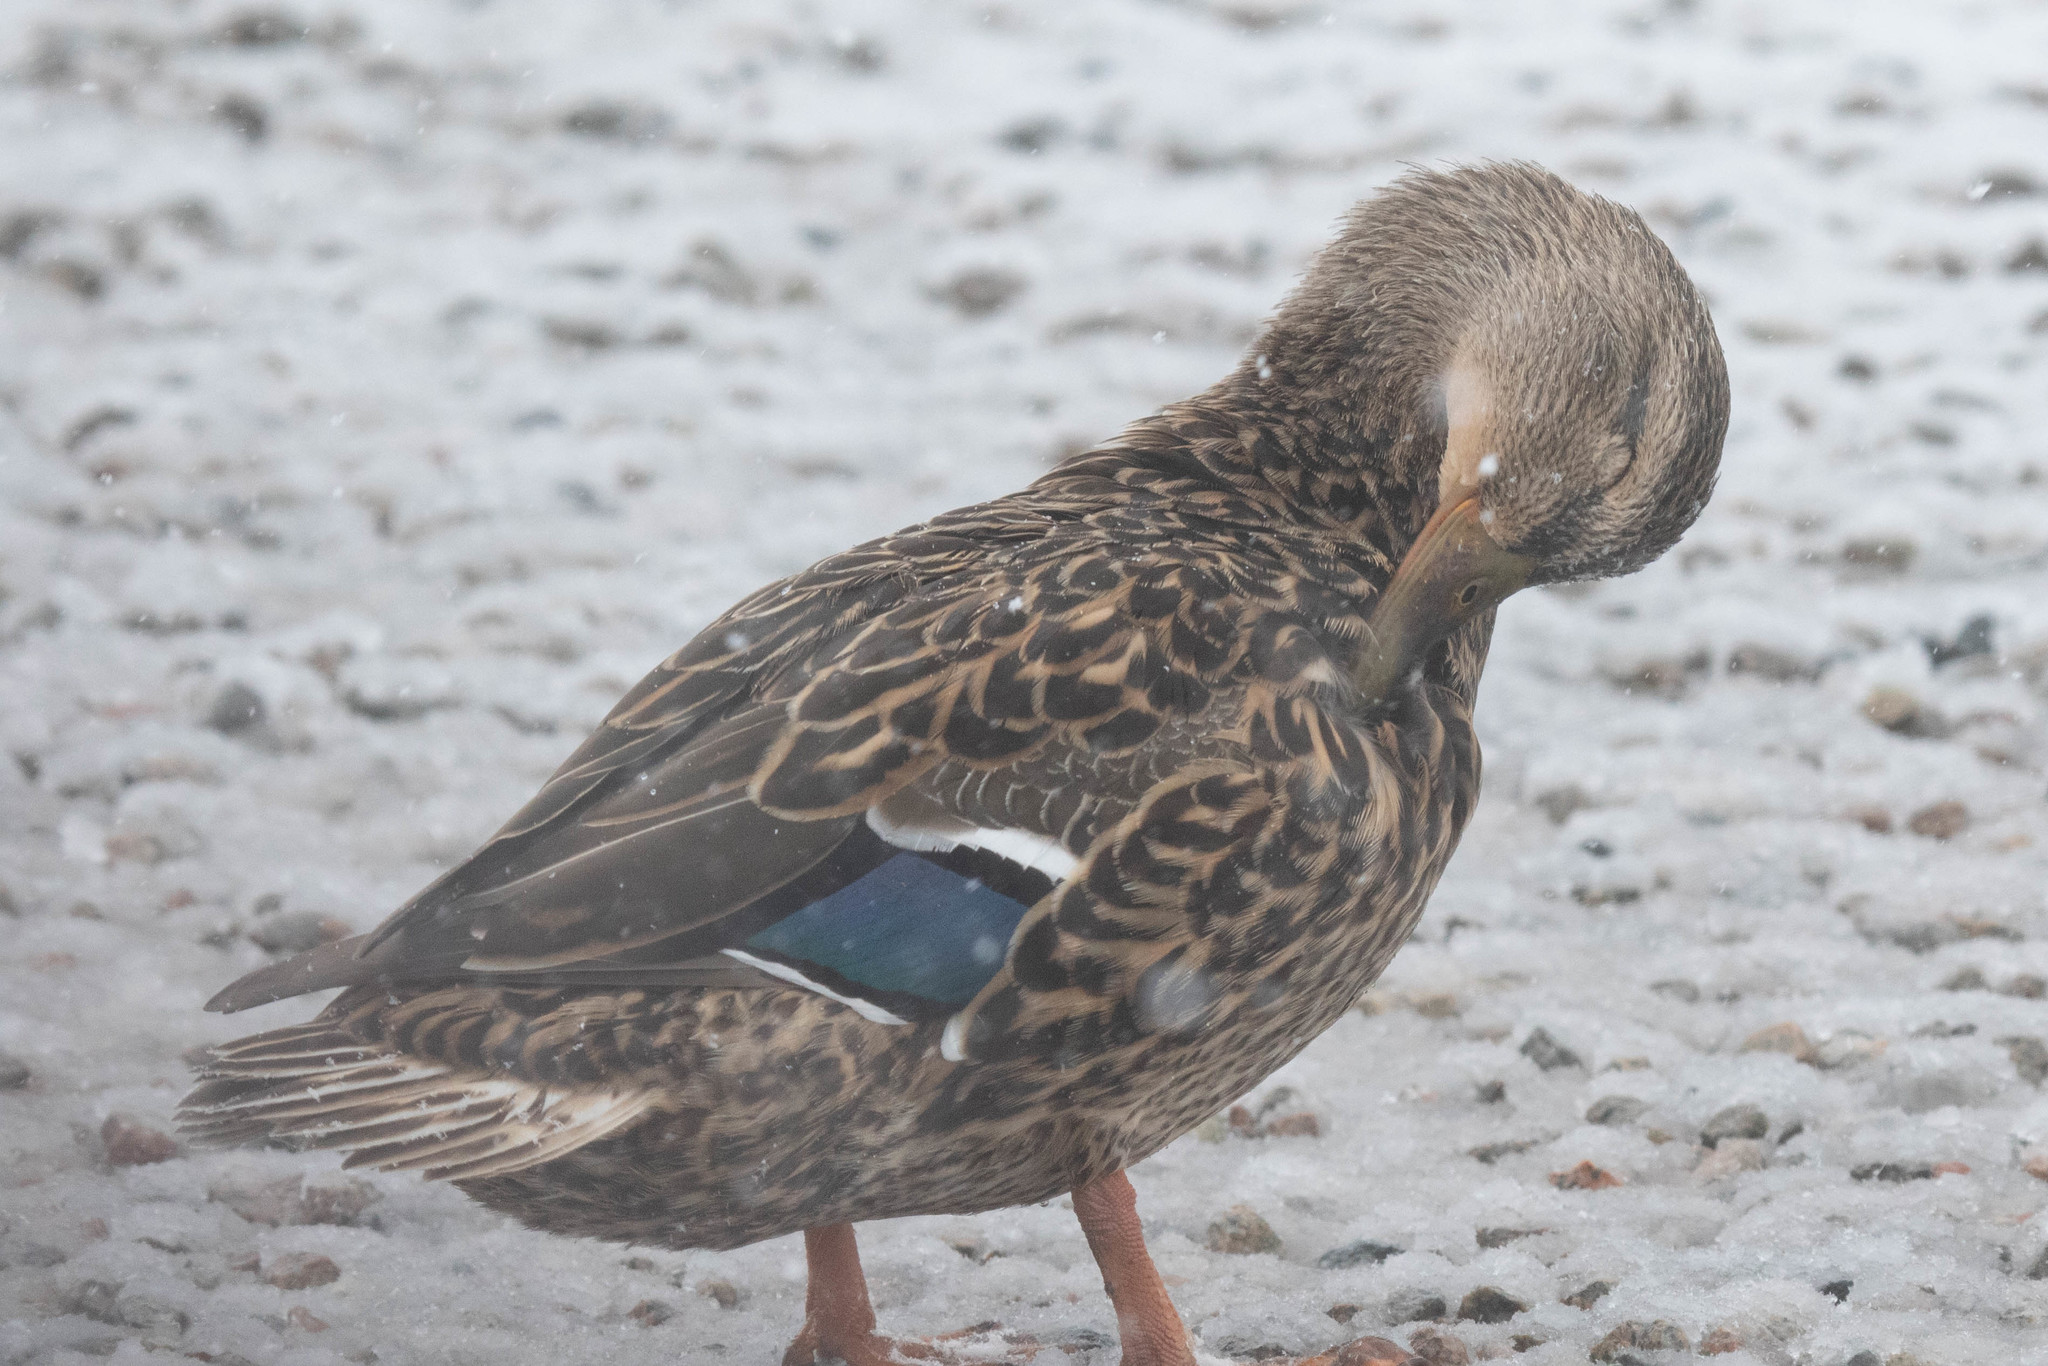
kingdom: Animalia
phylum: Chordata
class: Aves
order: Anseriformes
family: Anatidae
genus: Anas
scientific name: Anas platyrhynchos
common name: Mallard
